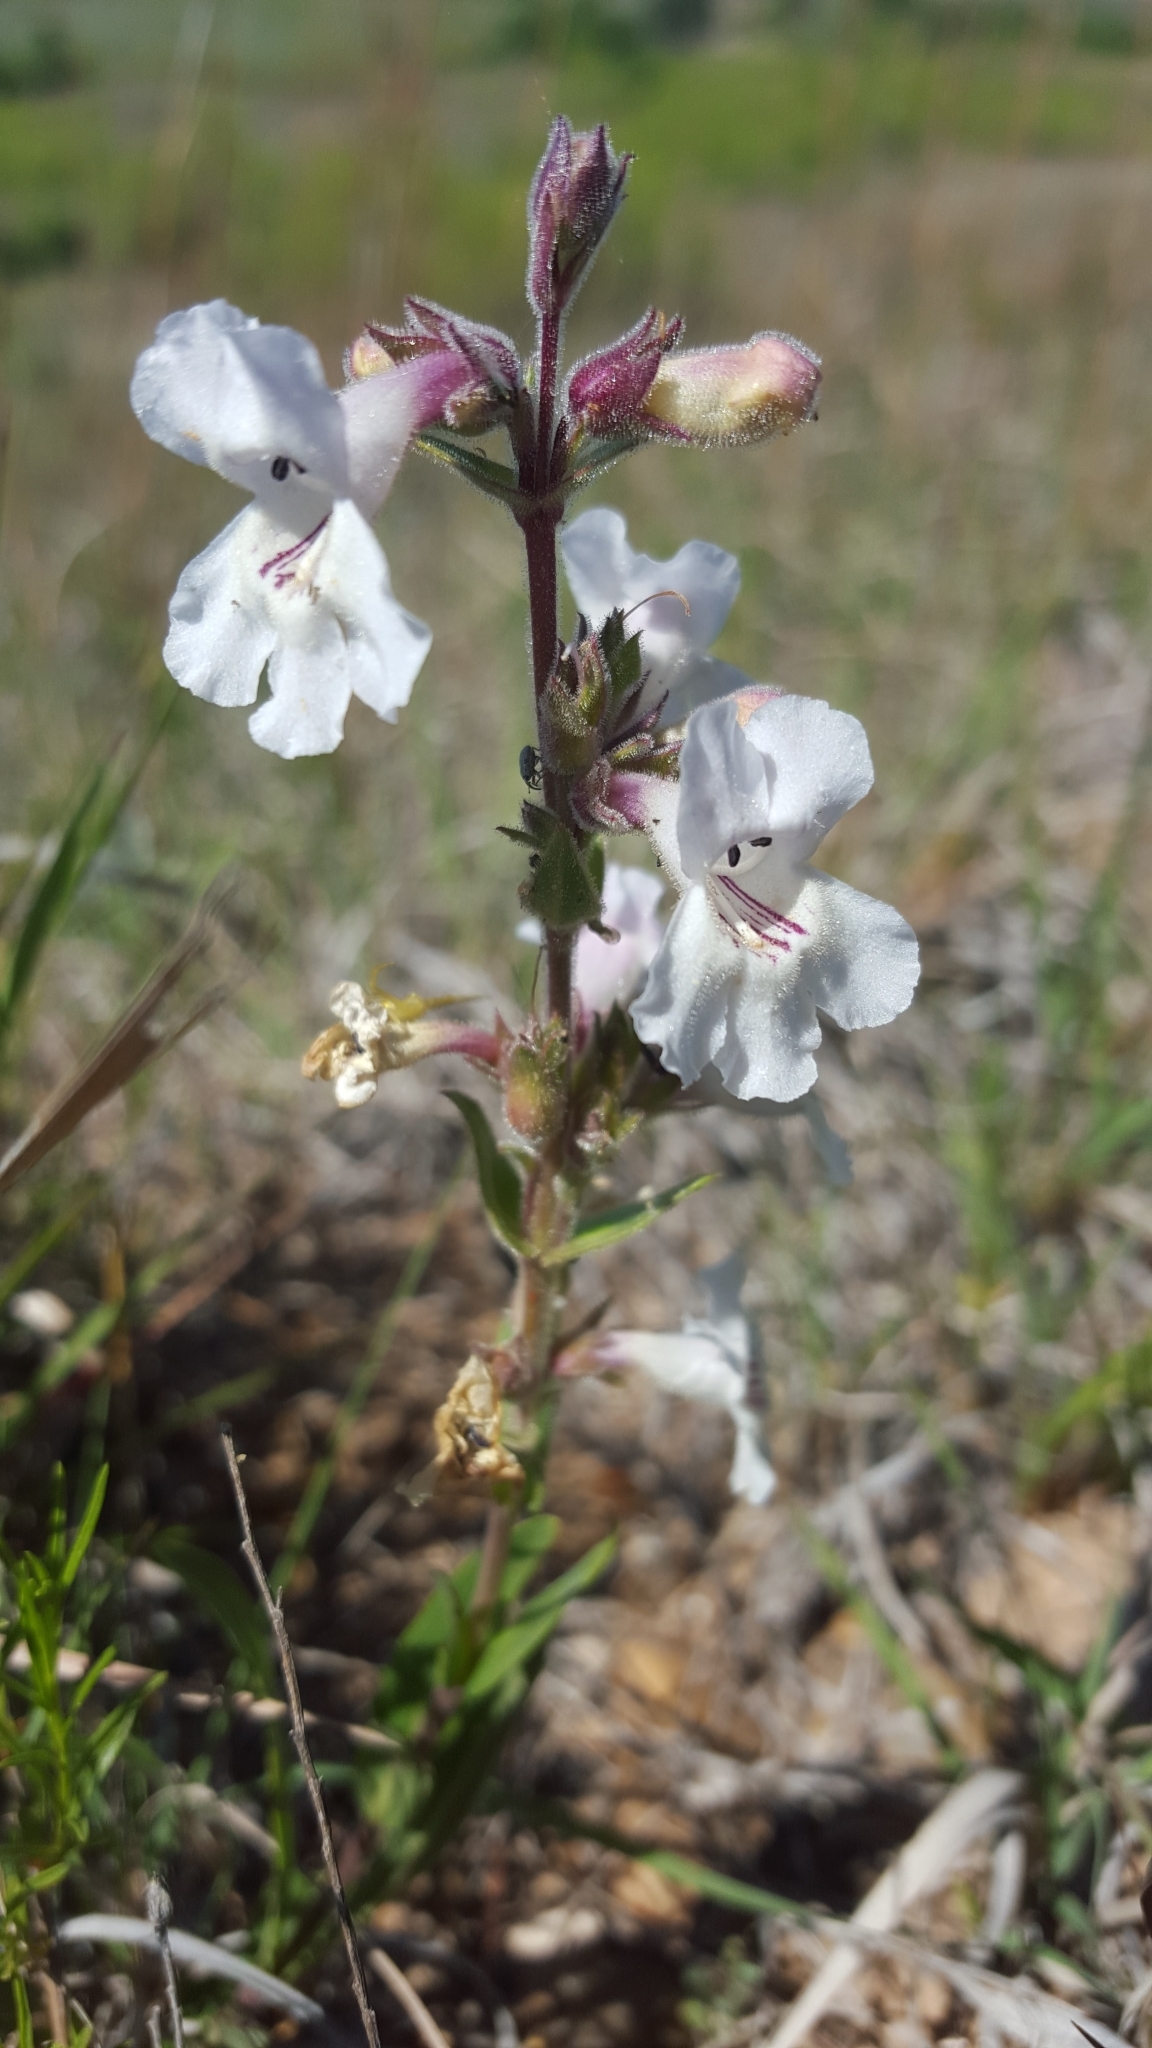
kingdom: Plantae
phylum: Tracheophyta
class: Magnoliopsida
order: Lamiales
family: Plantaginaceae
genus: Penstemon
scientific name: Penstemon albidus
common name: White beardtongue
